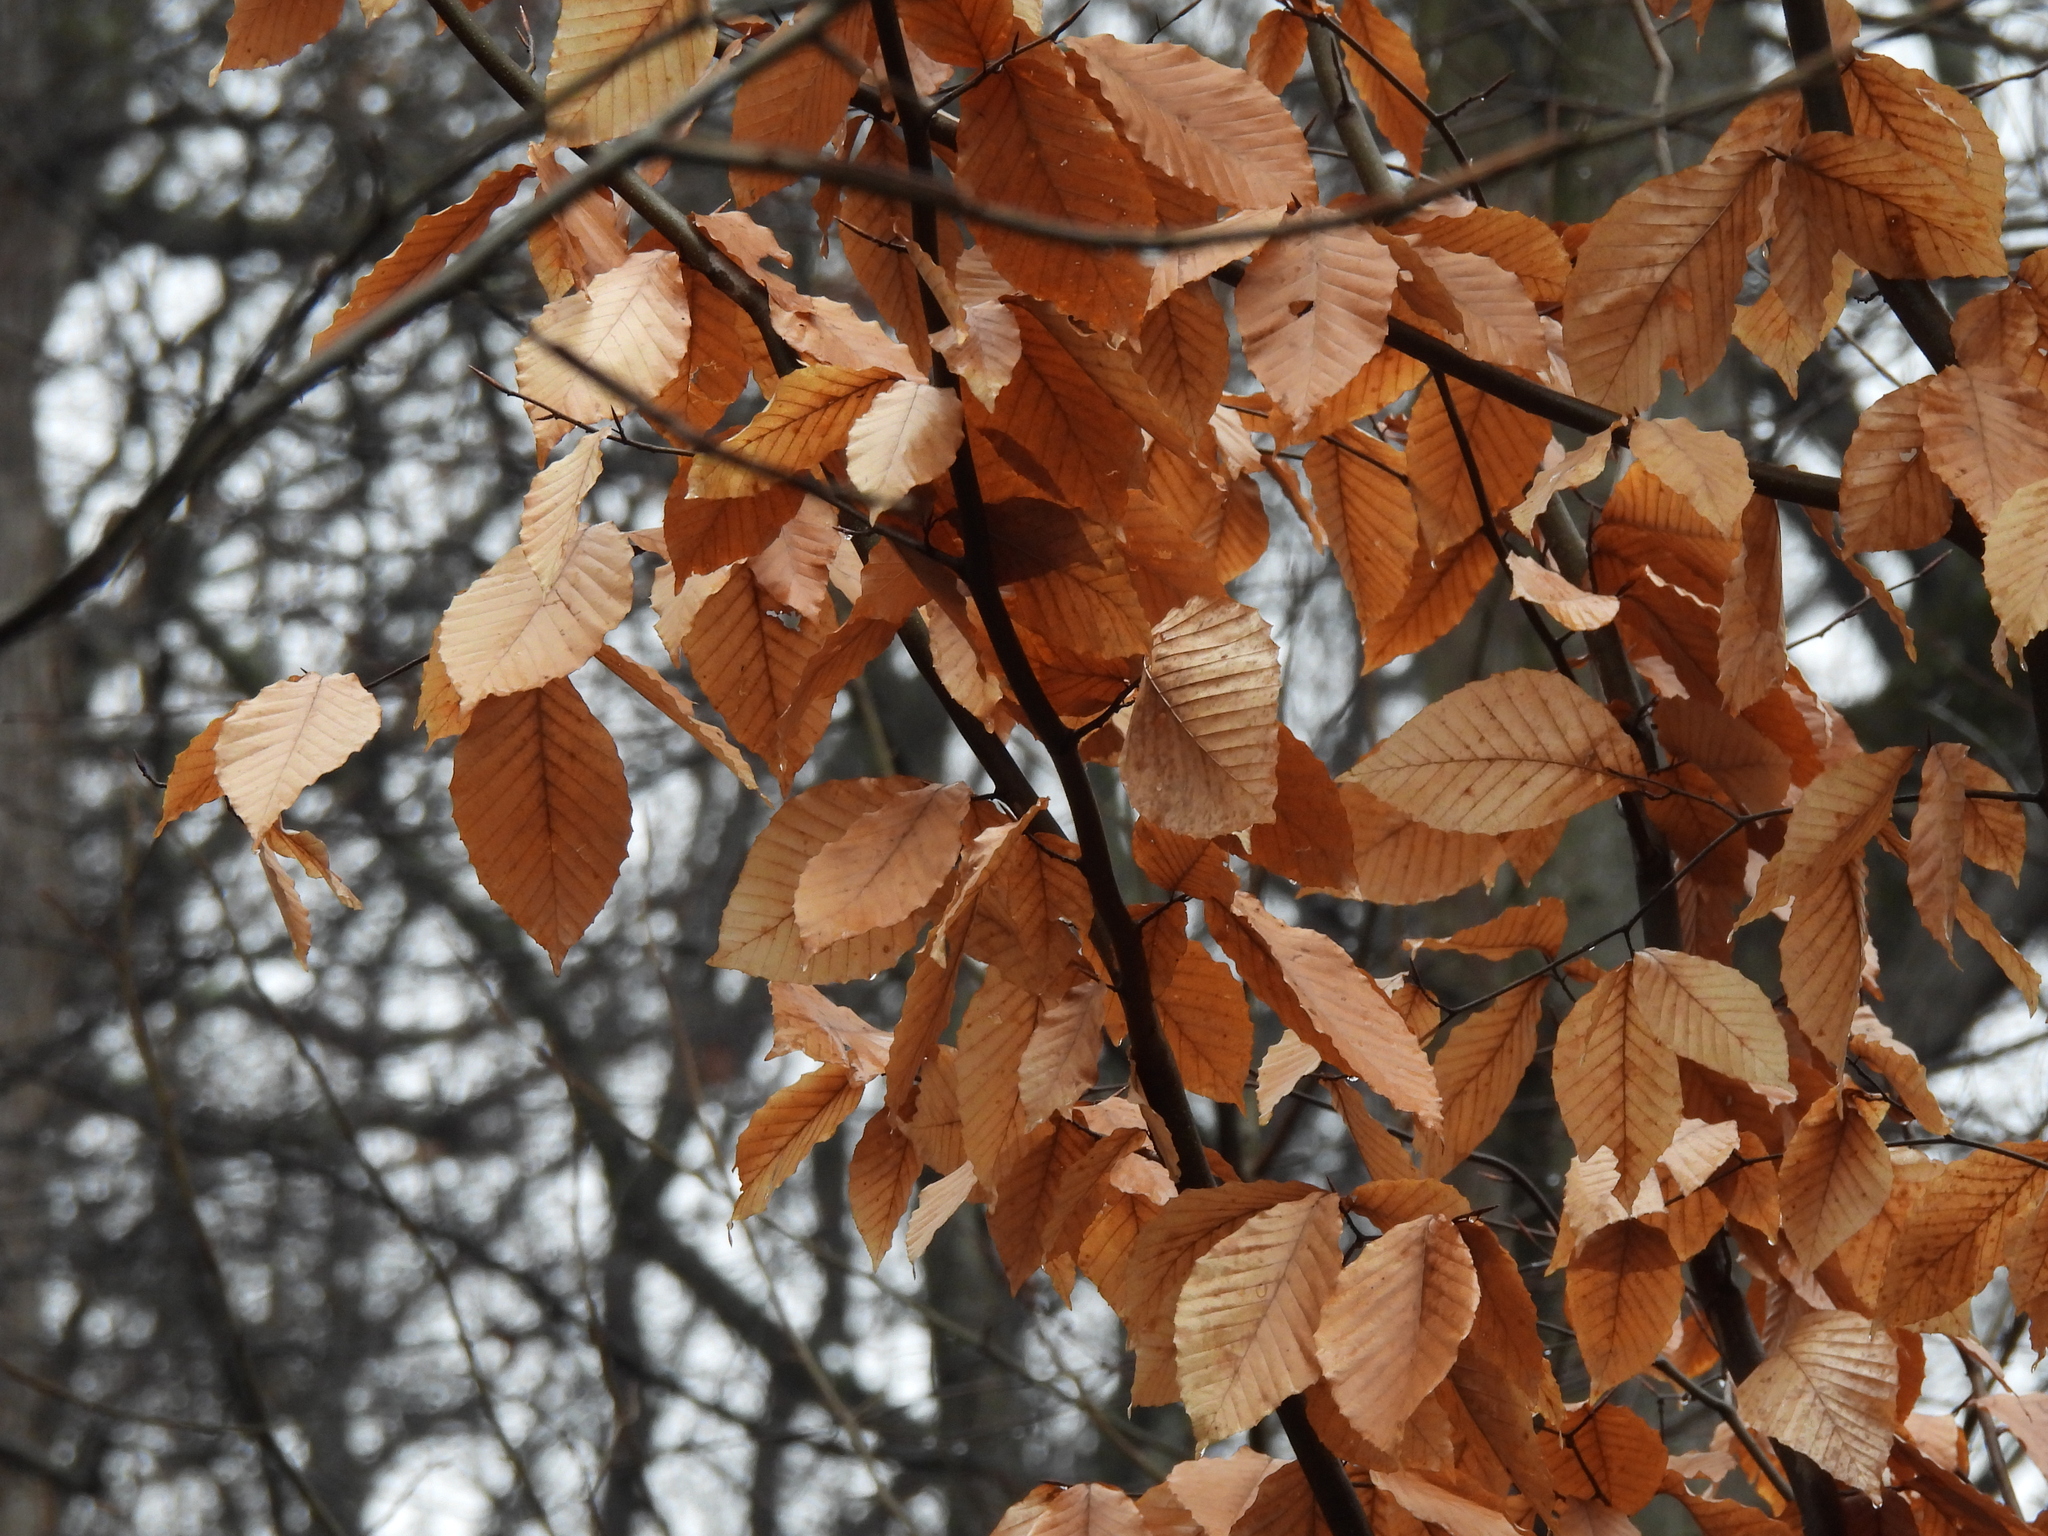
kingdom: Plantae
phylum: Tracheophyta
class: Magnoliopsida
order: Fagales
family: Fagaceae
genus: Fagus
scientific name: Fagus grandifolia
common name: American beech
